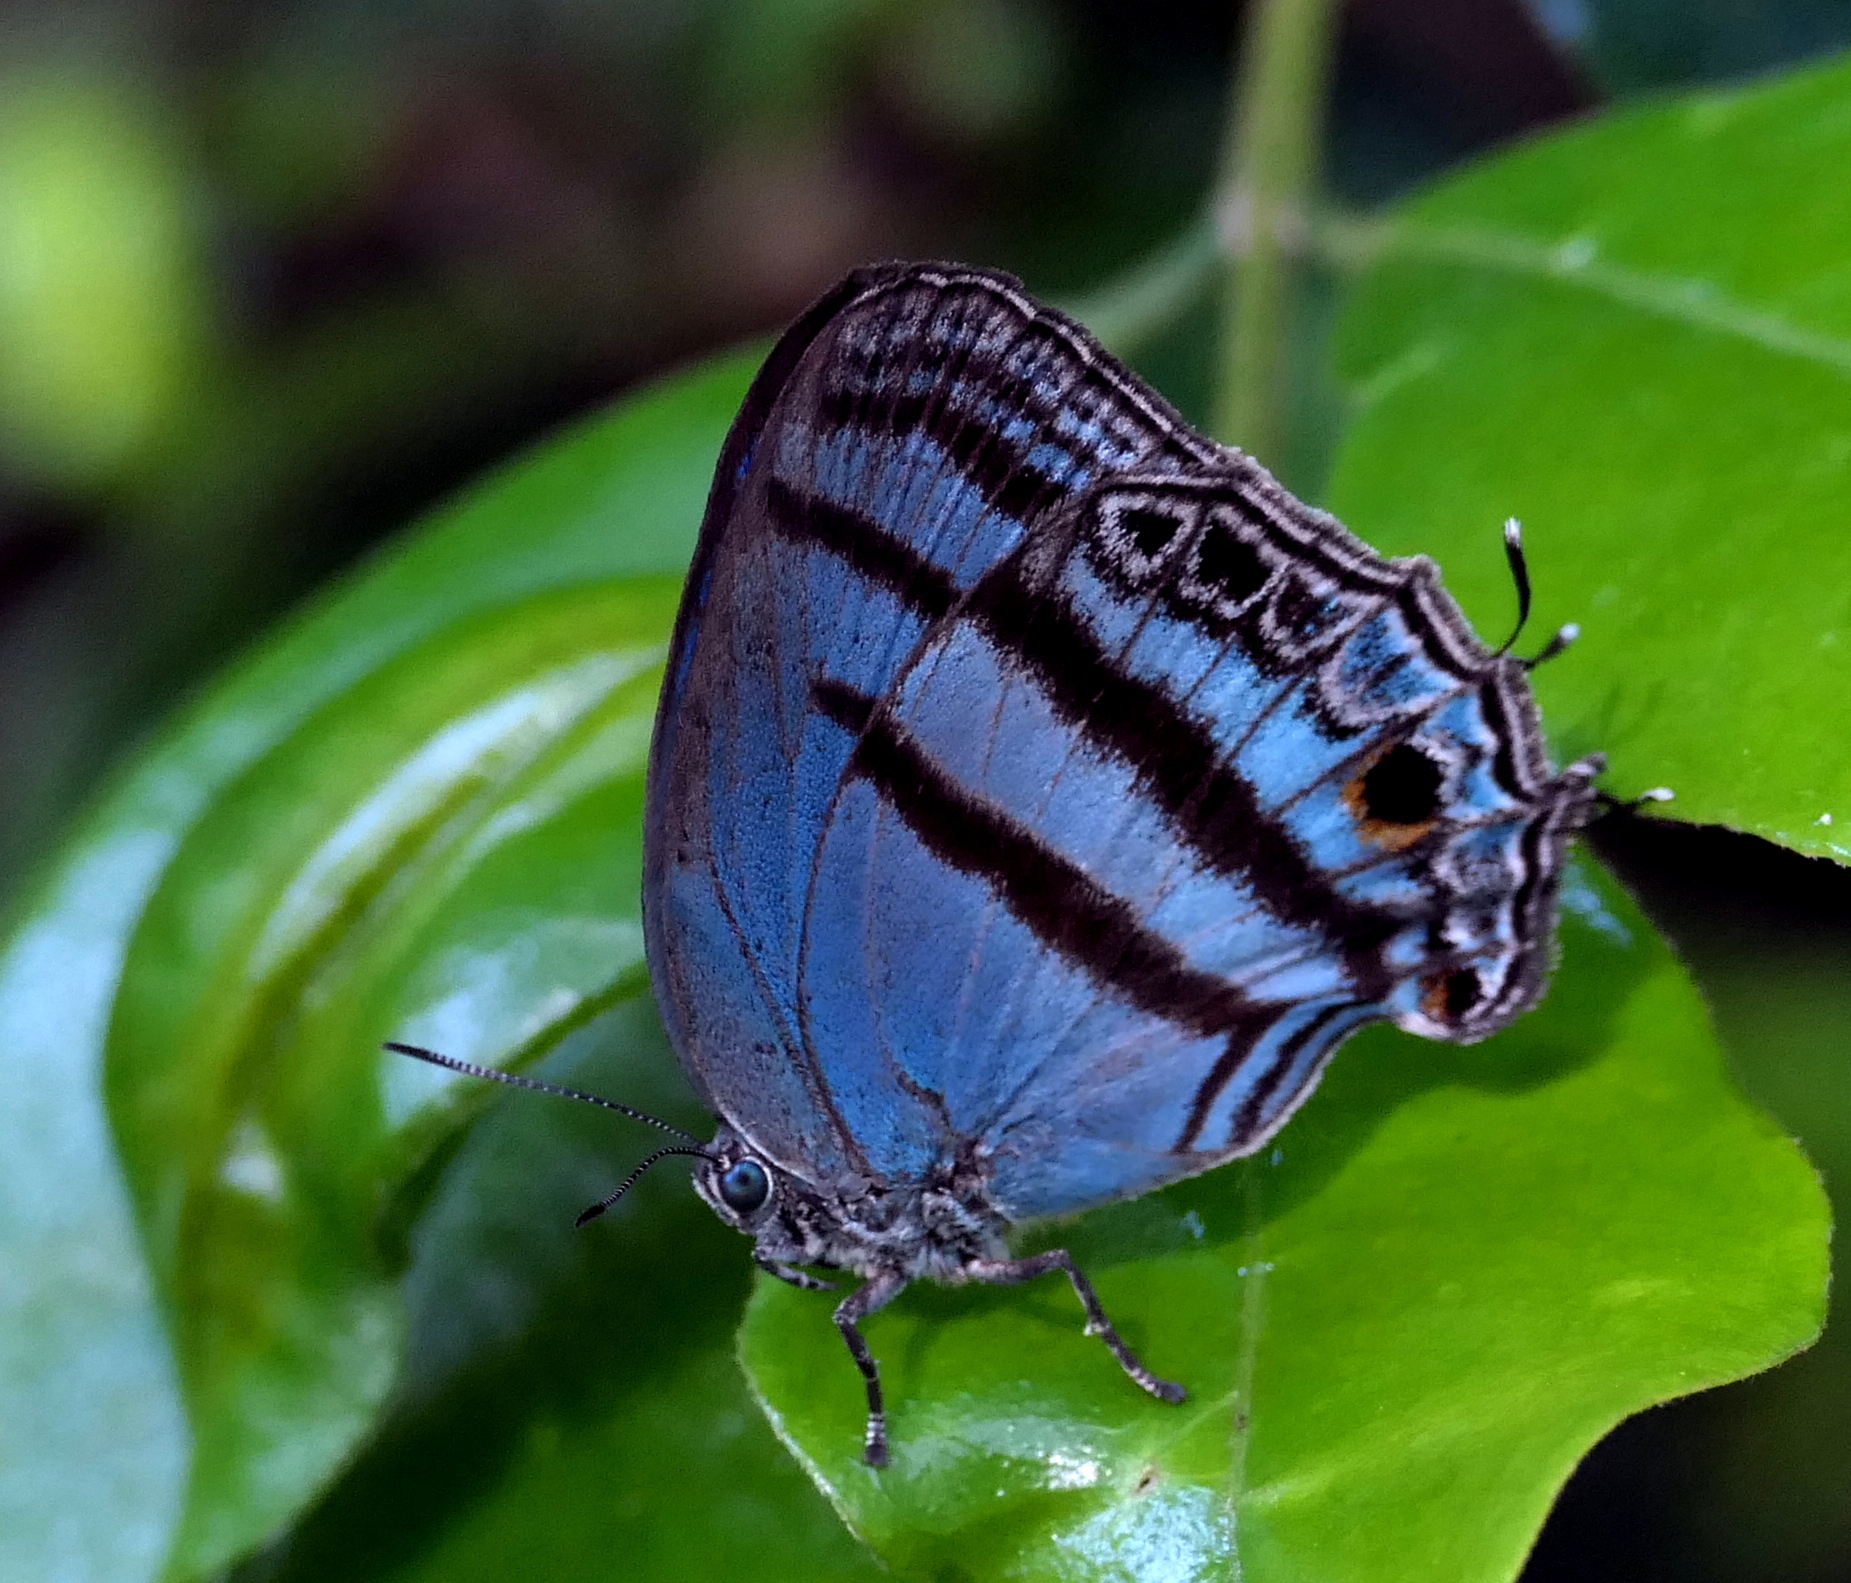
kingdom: Animalia
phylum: Arthropoda
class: Insecta
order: Lepidoptera
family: Lycaenidae
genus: Macusia
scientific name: Macusia satyroides
